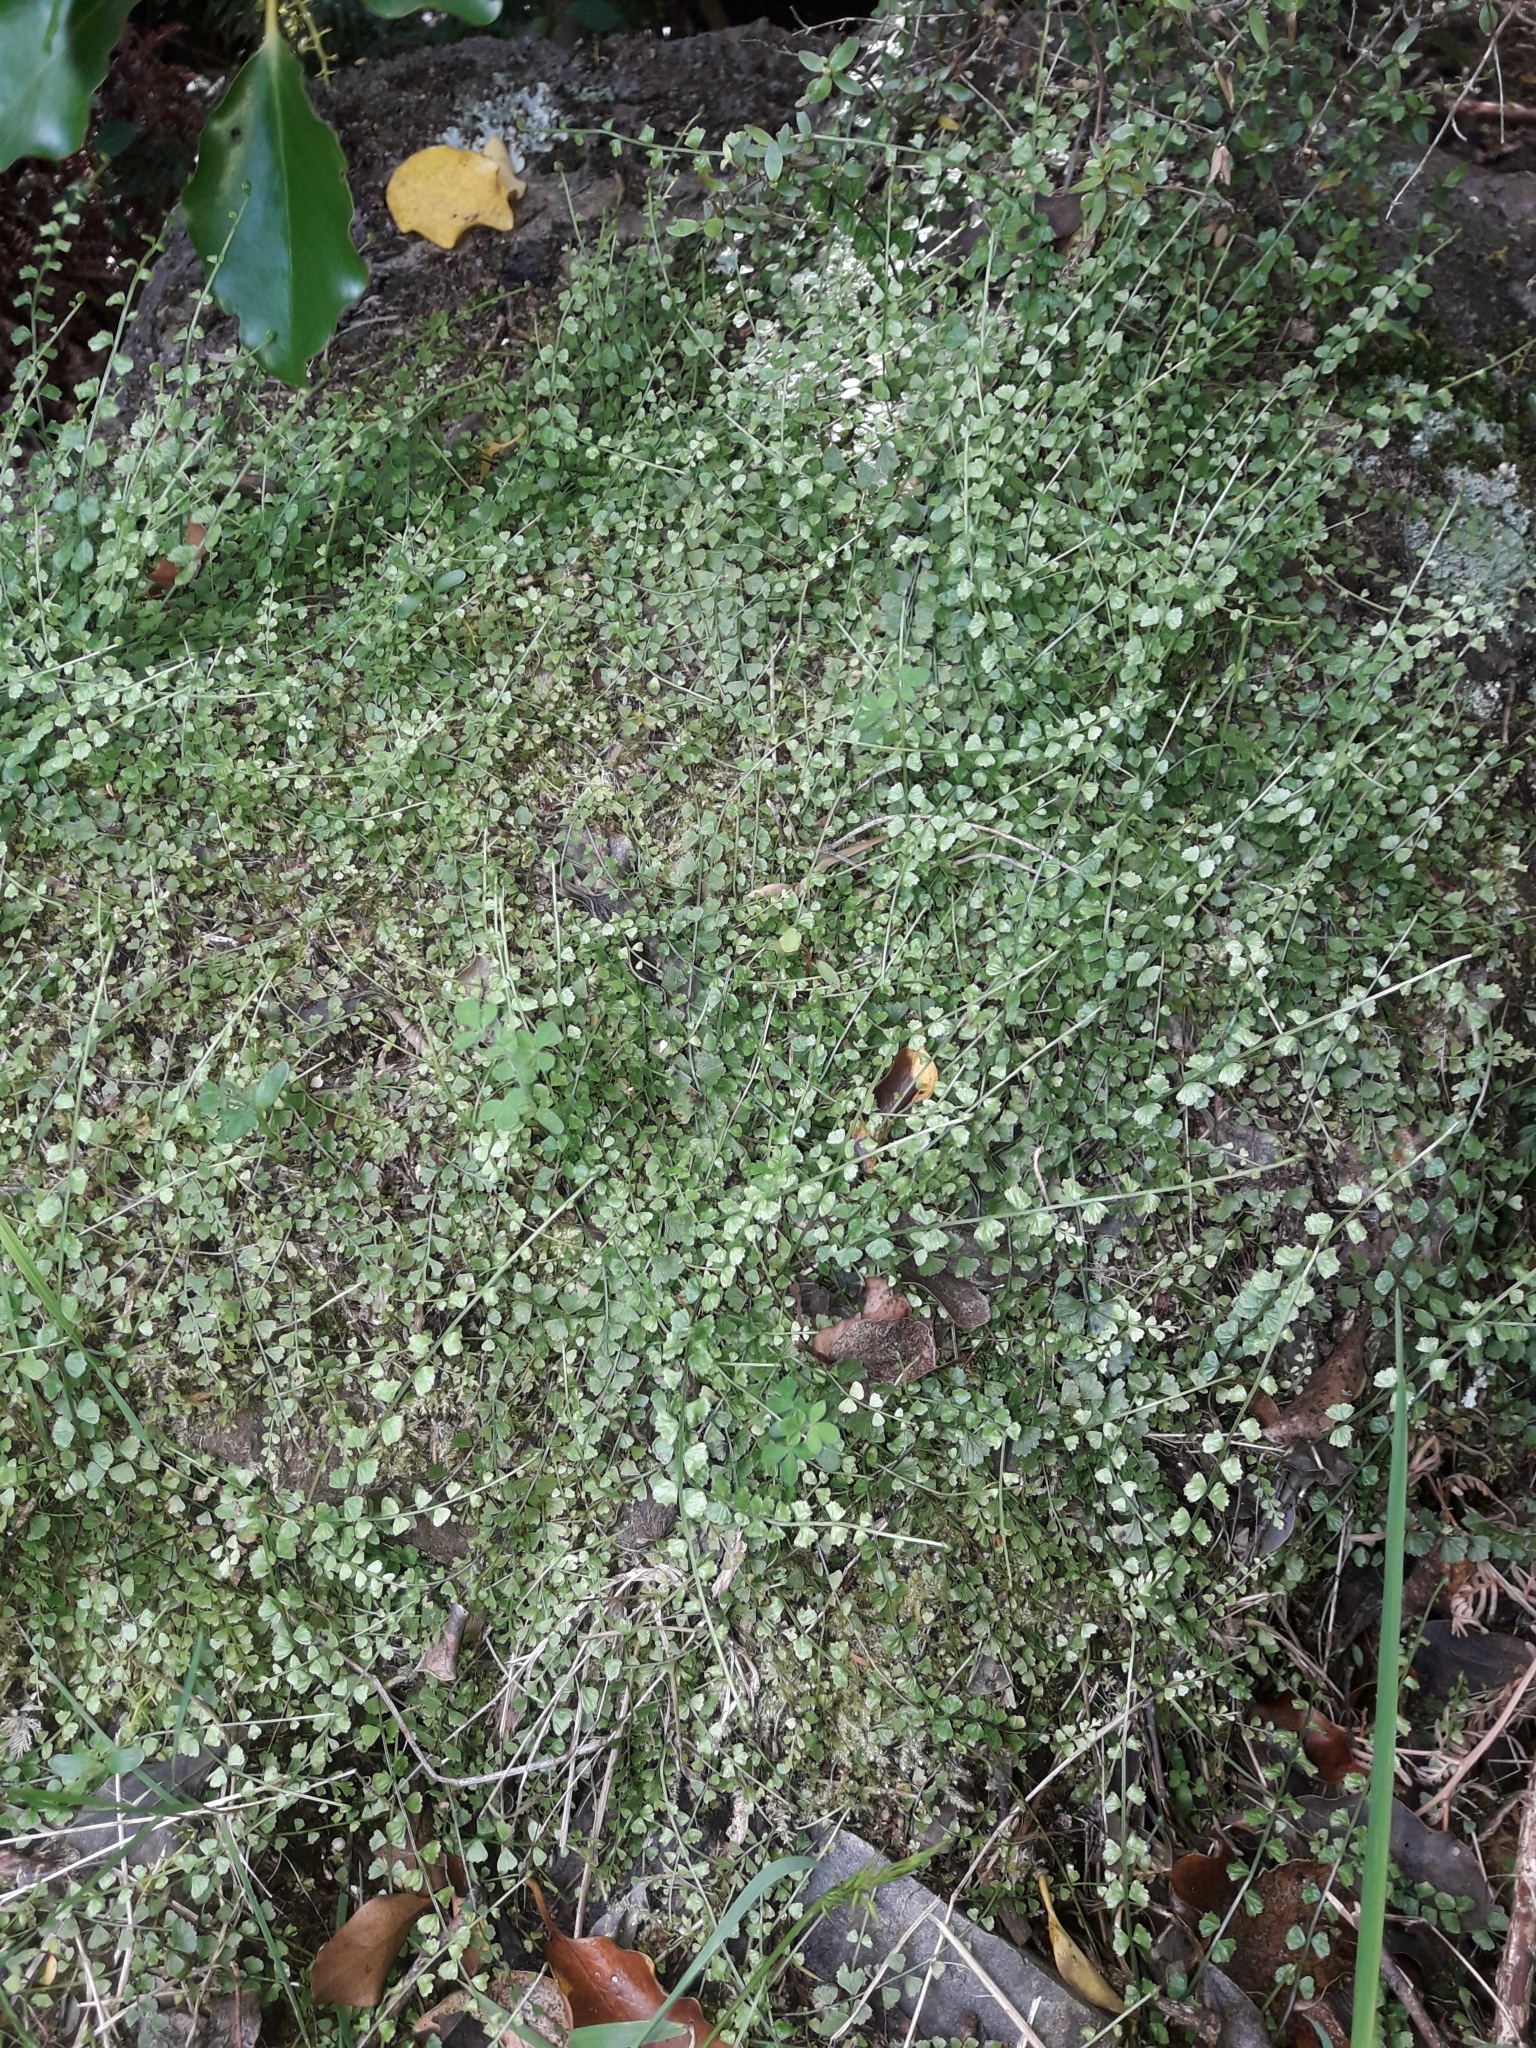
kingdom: Plantae
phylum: Tracheophyta
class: Polypodiopsida
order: Polypodiales
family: Aspleniaceae
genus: Asplenium
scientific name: Asplenium flabellifolium
